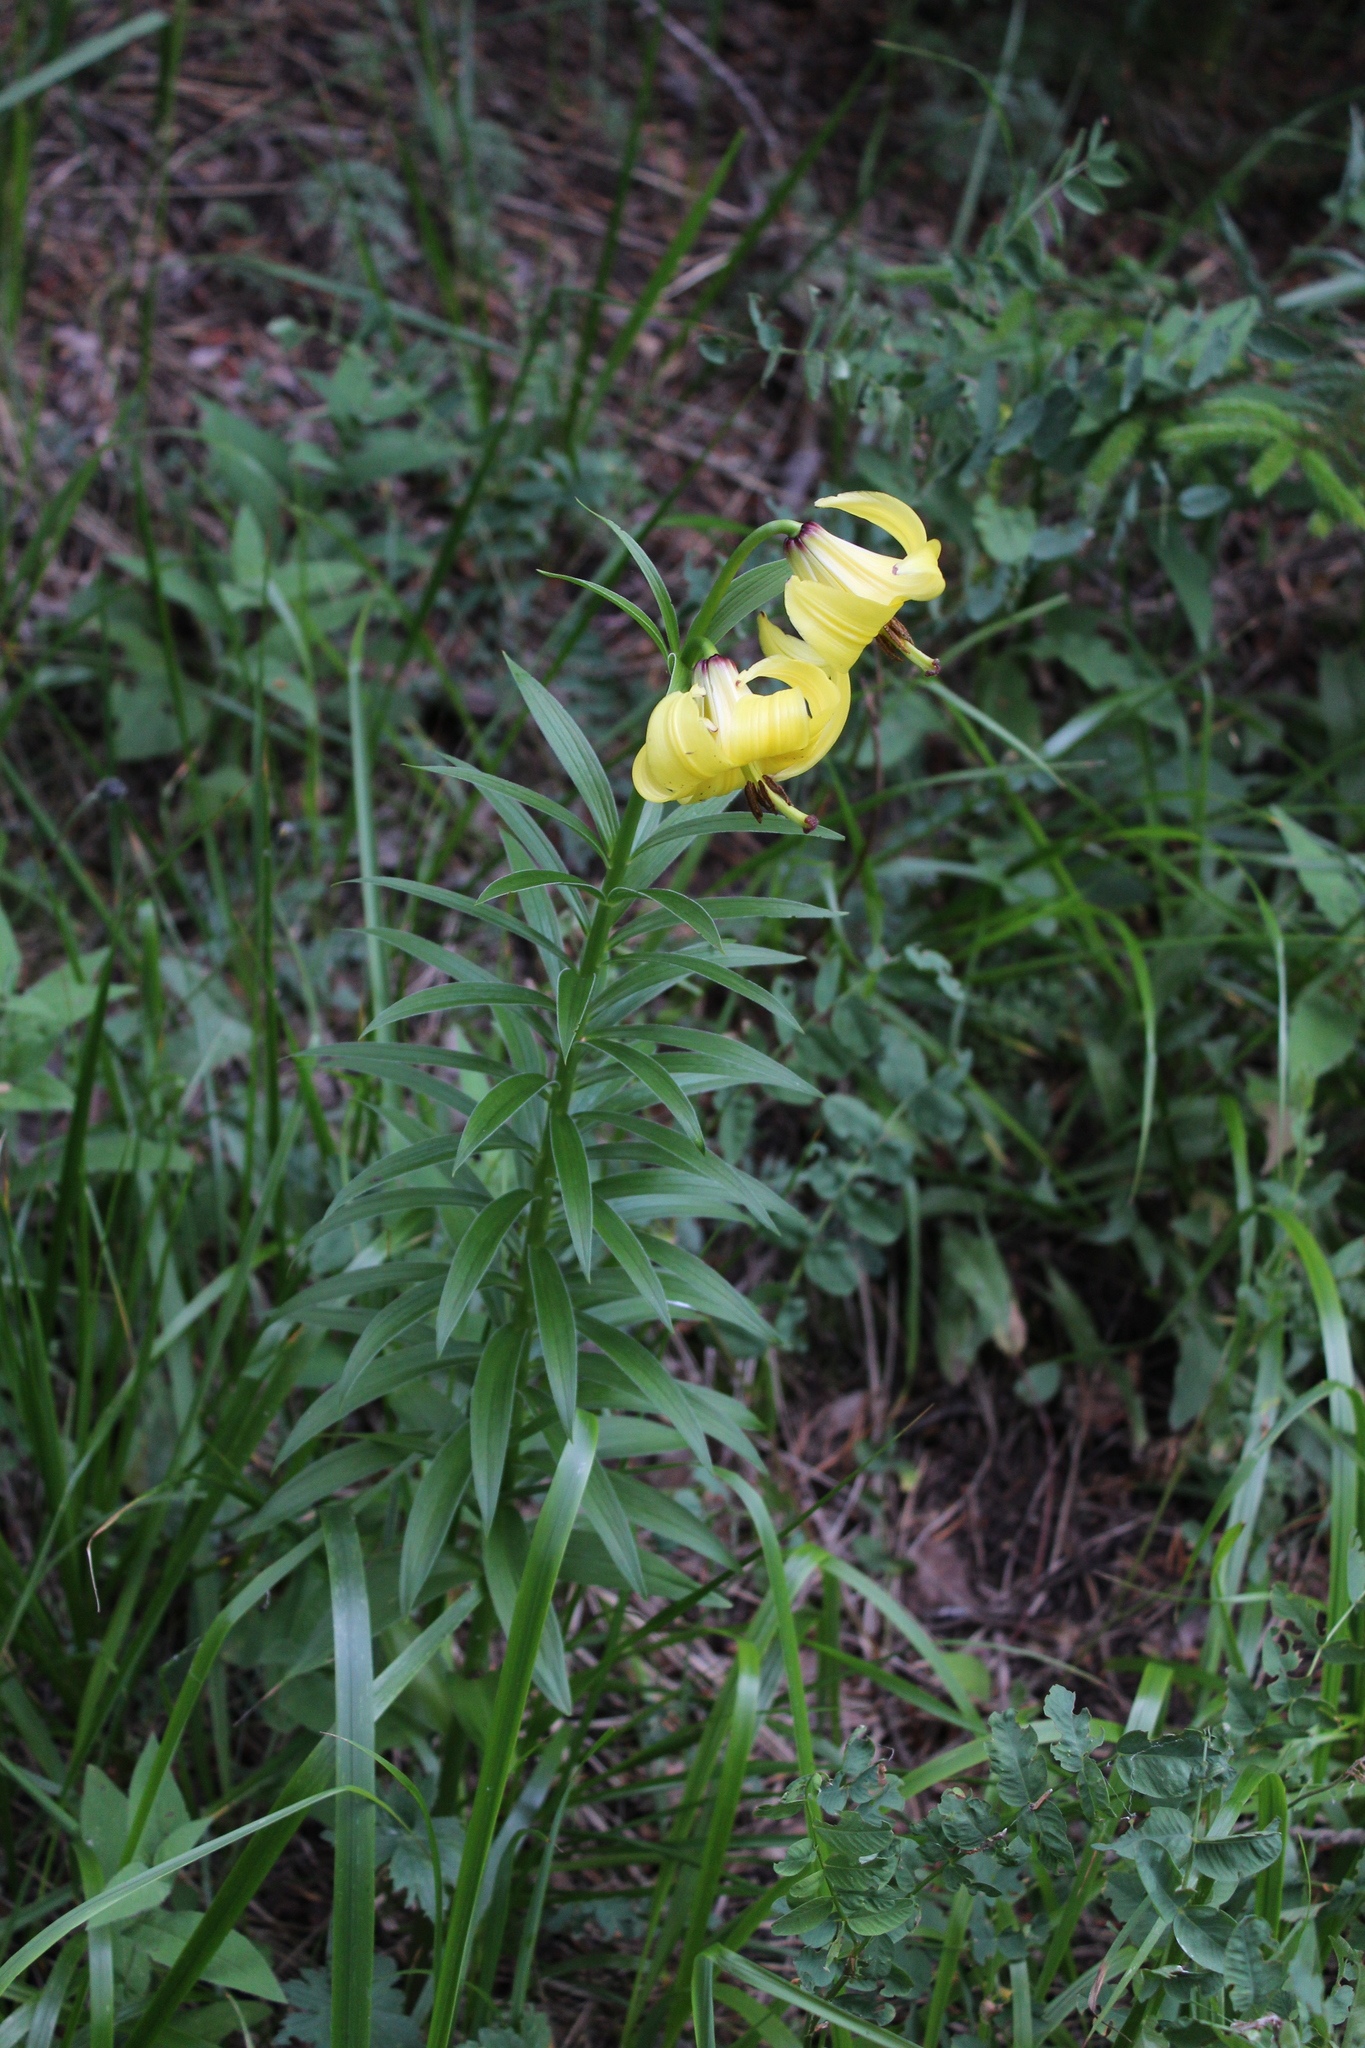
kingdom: Plantae
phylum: Tracheophyta
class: Liliopsida
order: Liliales
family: Liliaceae
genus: Lilium
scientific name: Lilium monadelphum
